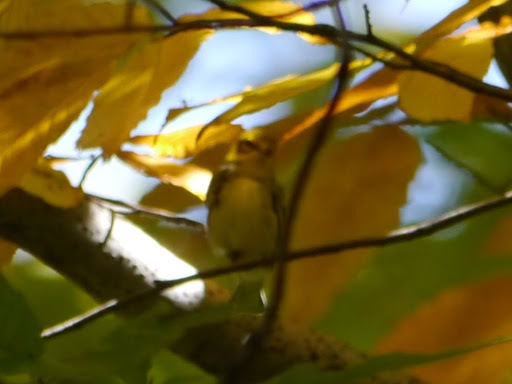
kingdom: Animalia
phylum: Chordata
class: Aves
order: Passeriformes
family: Parulidae
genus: Setophaga
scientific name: Setophaga virens
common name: Black-throated green warbler
